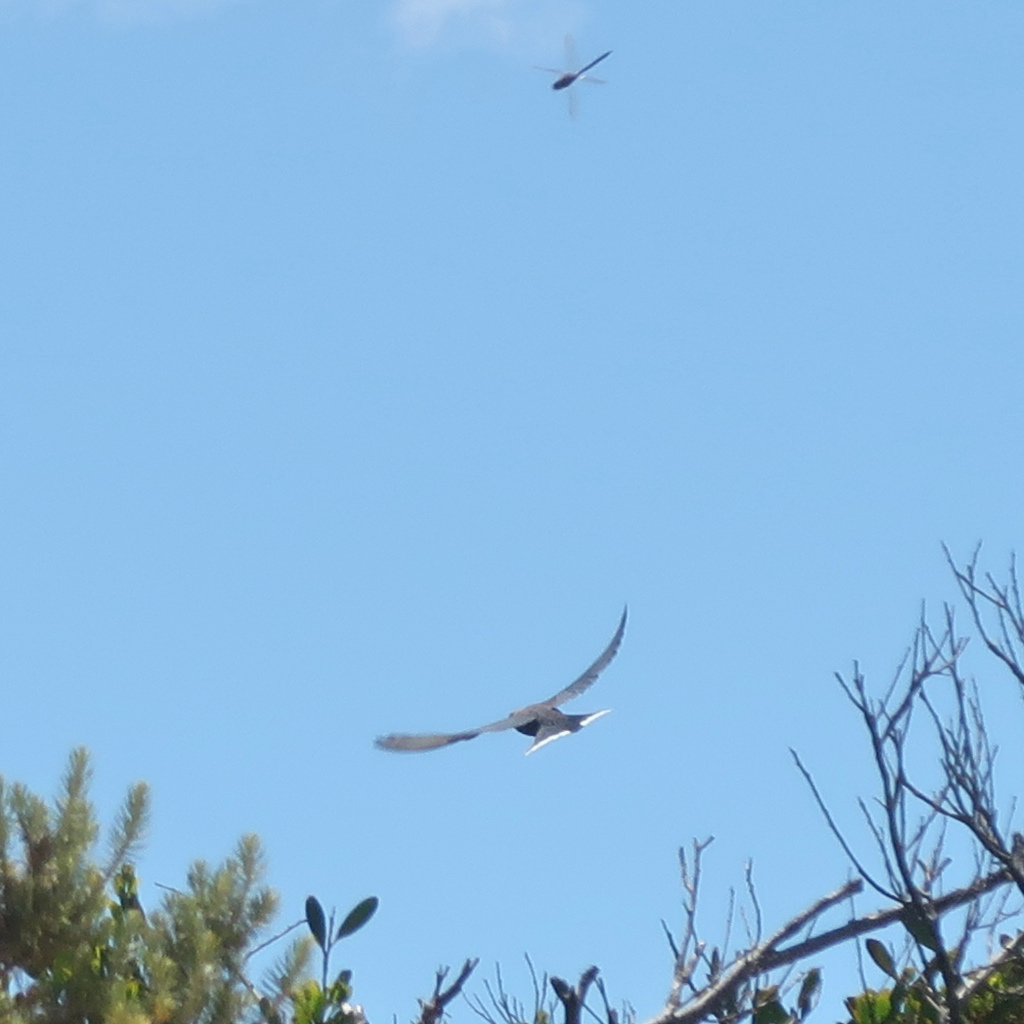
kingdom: Animalia
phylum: Chordata
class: Aves
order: Passeriformes
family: Artamidae
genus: Artamus
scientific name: Artamus cyanopterus
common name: Dusky woodswallow
